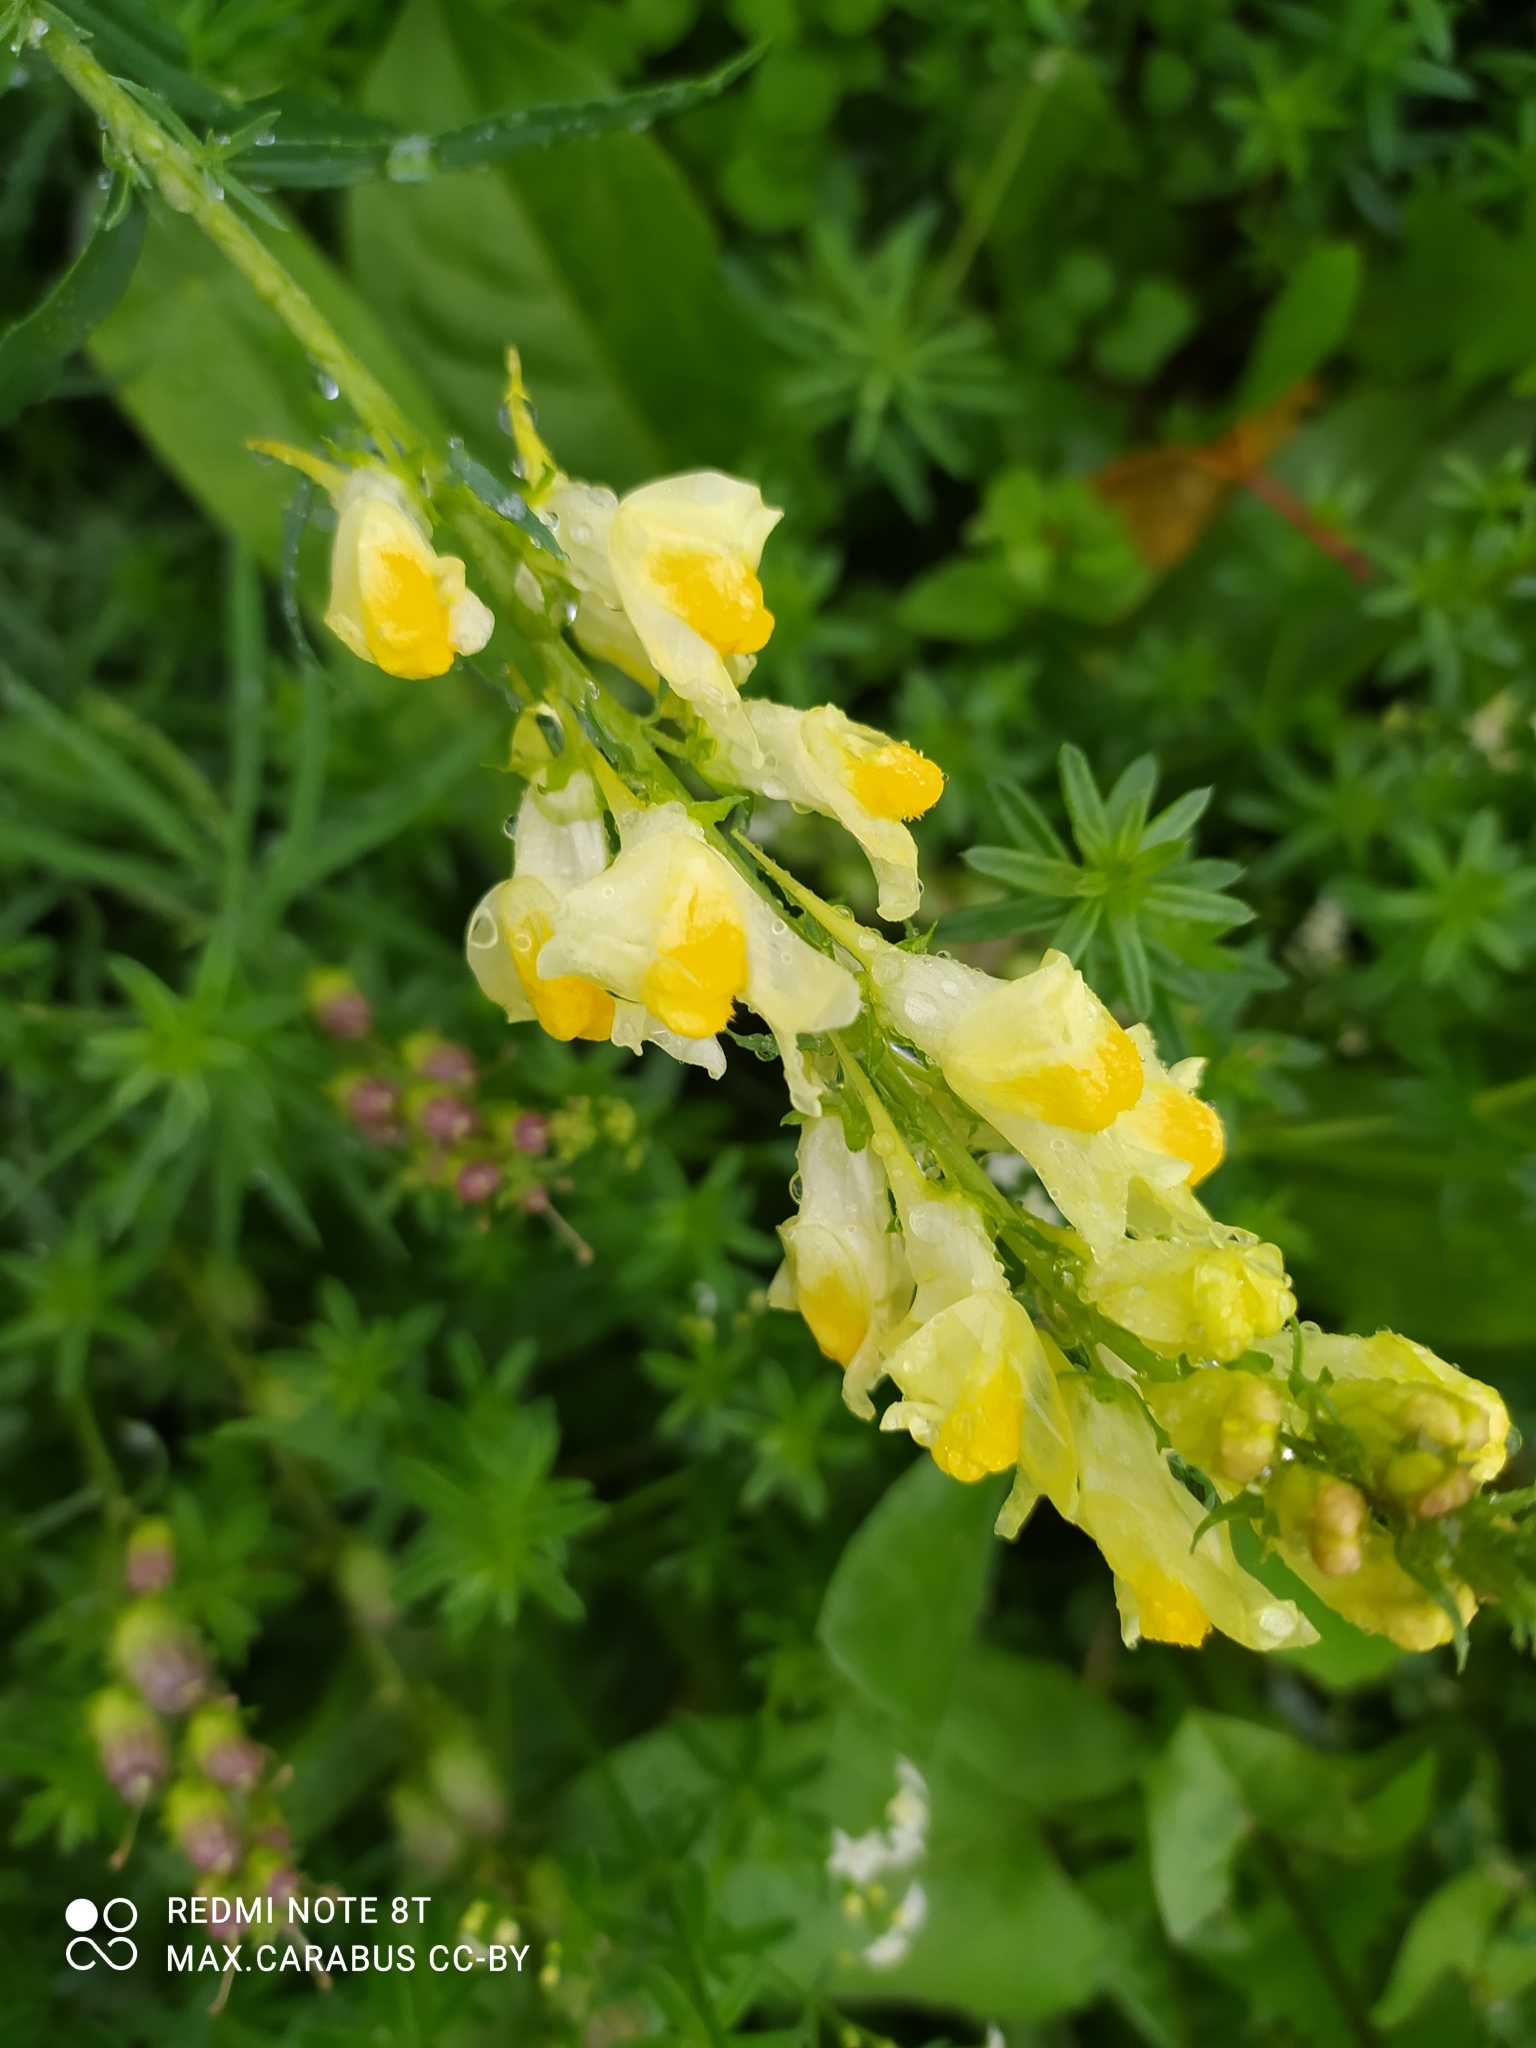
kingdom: Plantae
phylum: Tracheophyta
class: Magnoliopsida
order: Lamiales
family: Plantaginaceae
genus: Linaria
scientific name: Linaria vulgaris
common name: Butter and eggs
